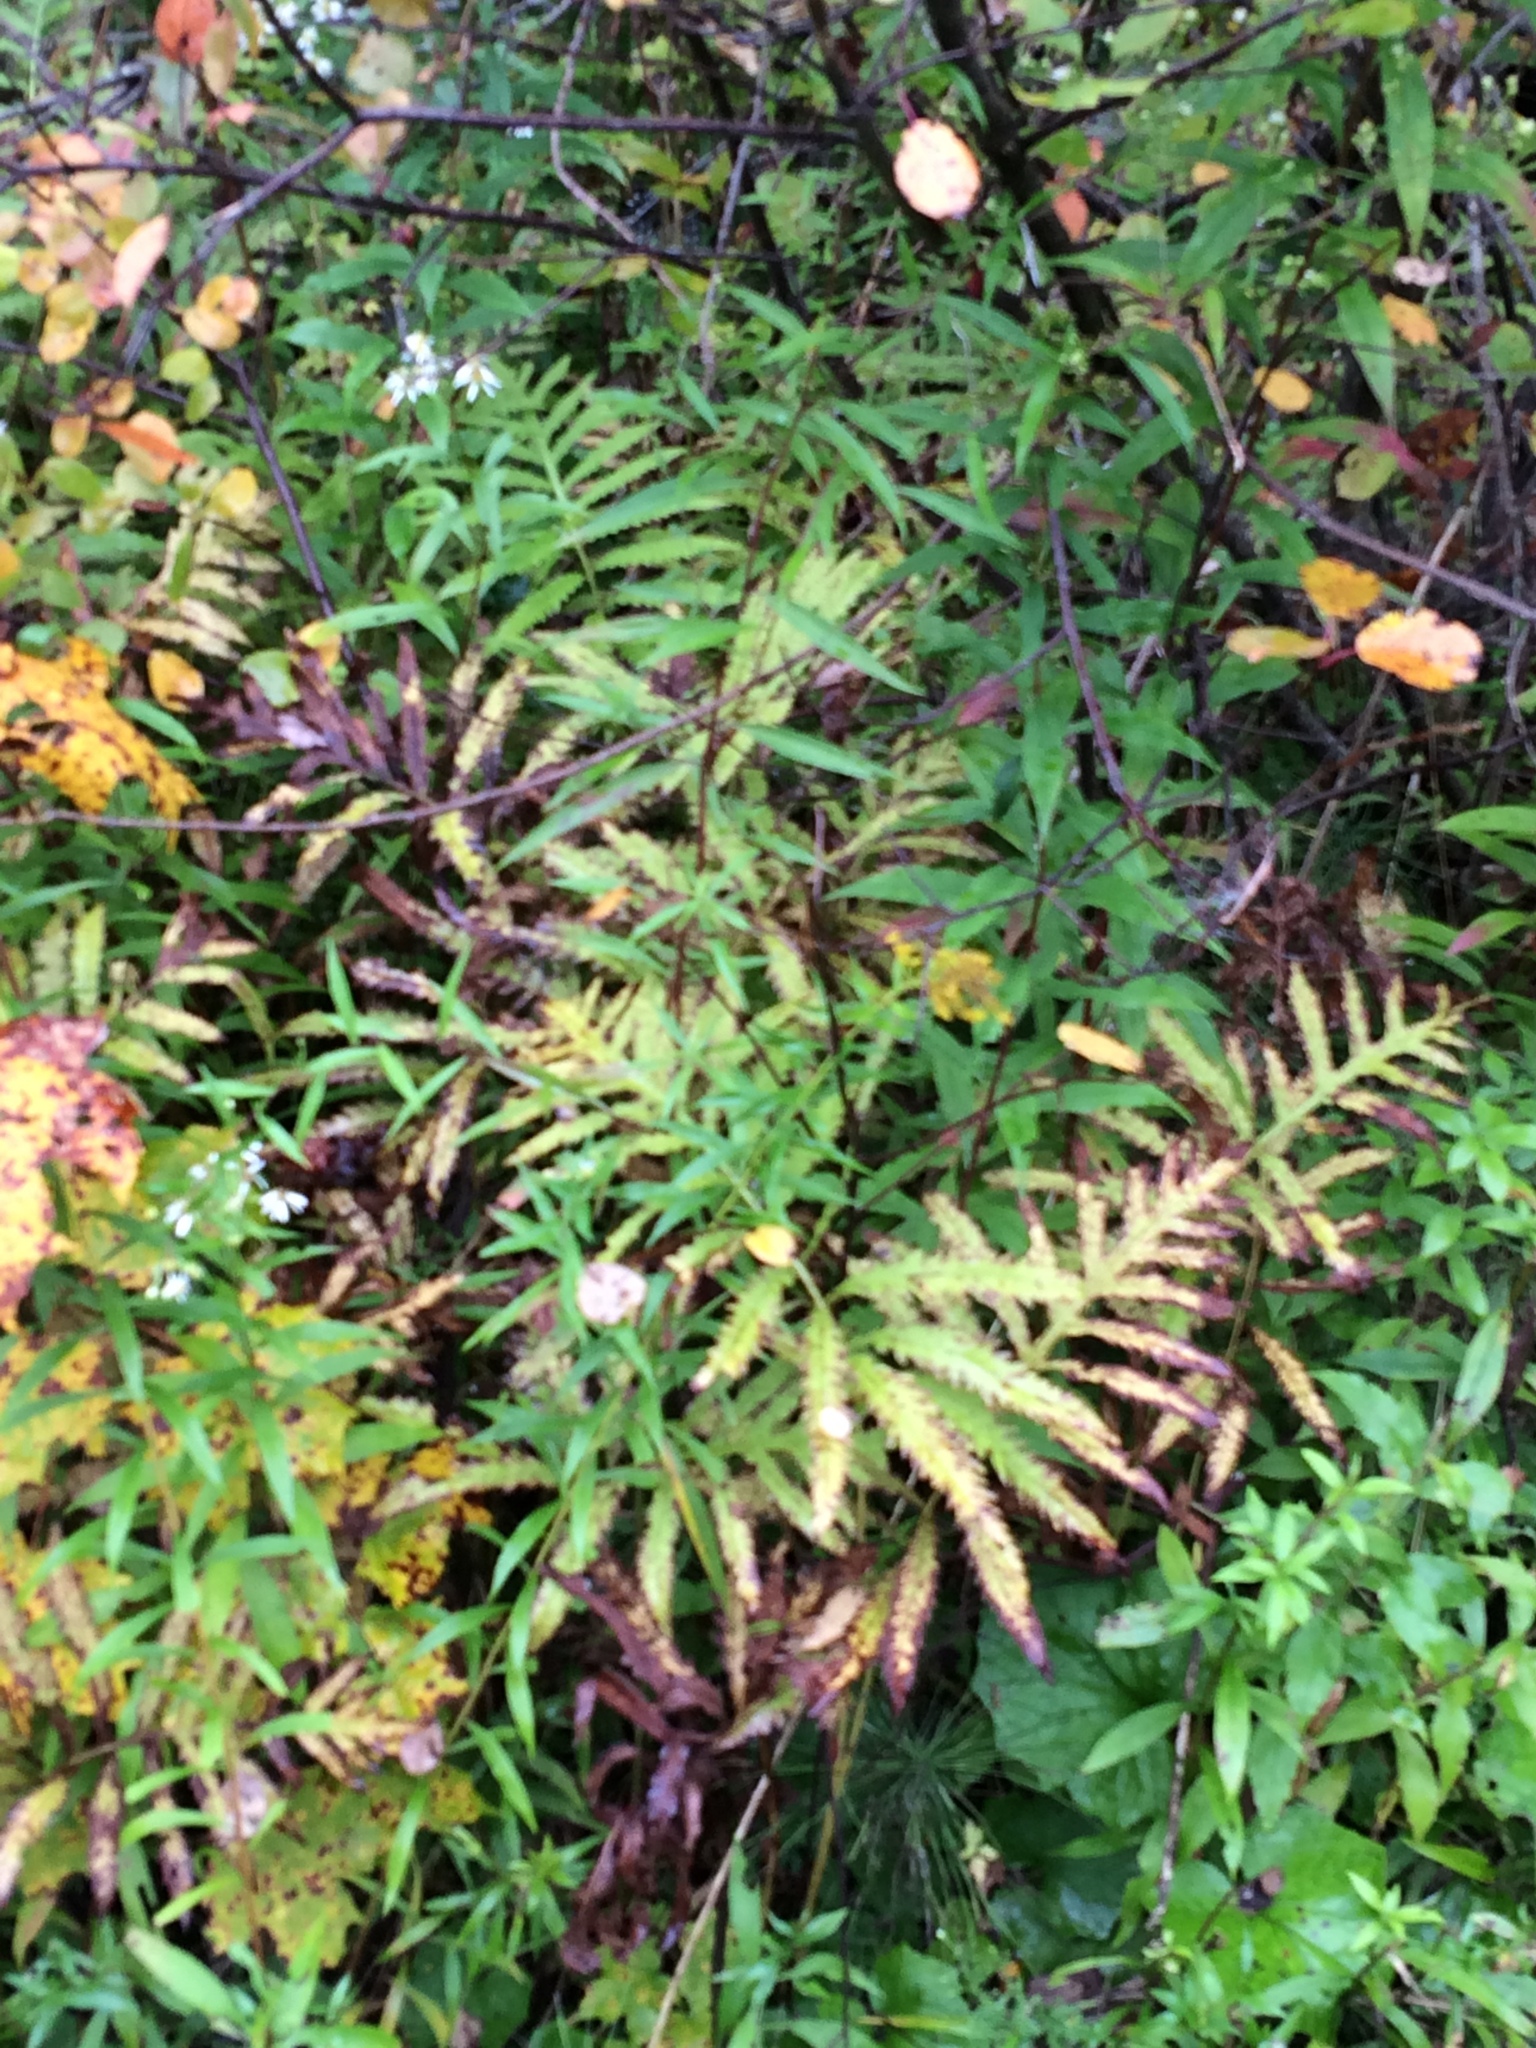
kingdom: Plantae
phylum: Tracheophyta
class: Polypodiopsida
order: Polypodiales
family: Onocleaceae
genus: Onoclea
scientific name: Onoclea sensibilis
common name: Sensitive fern
